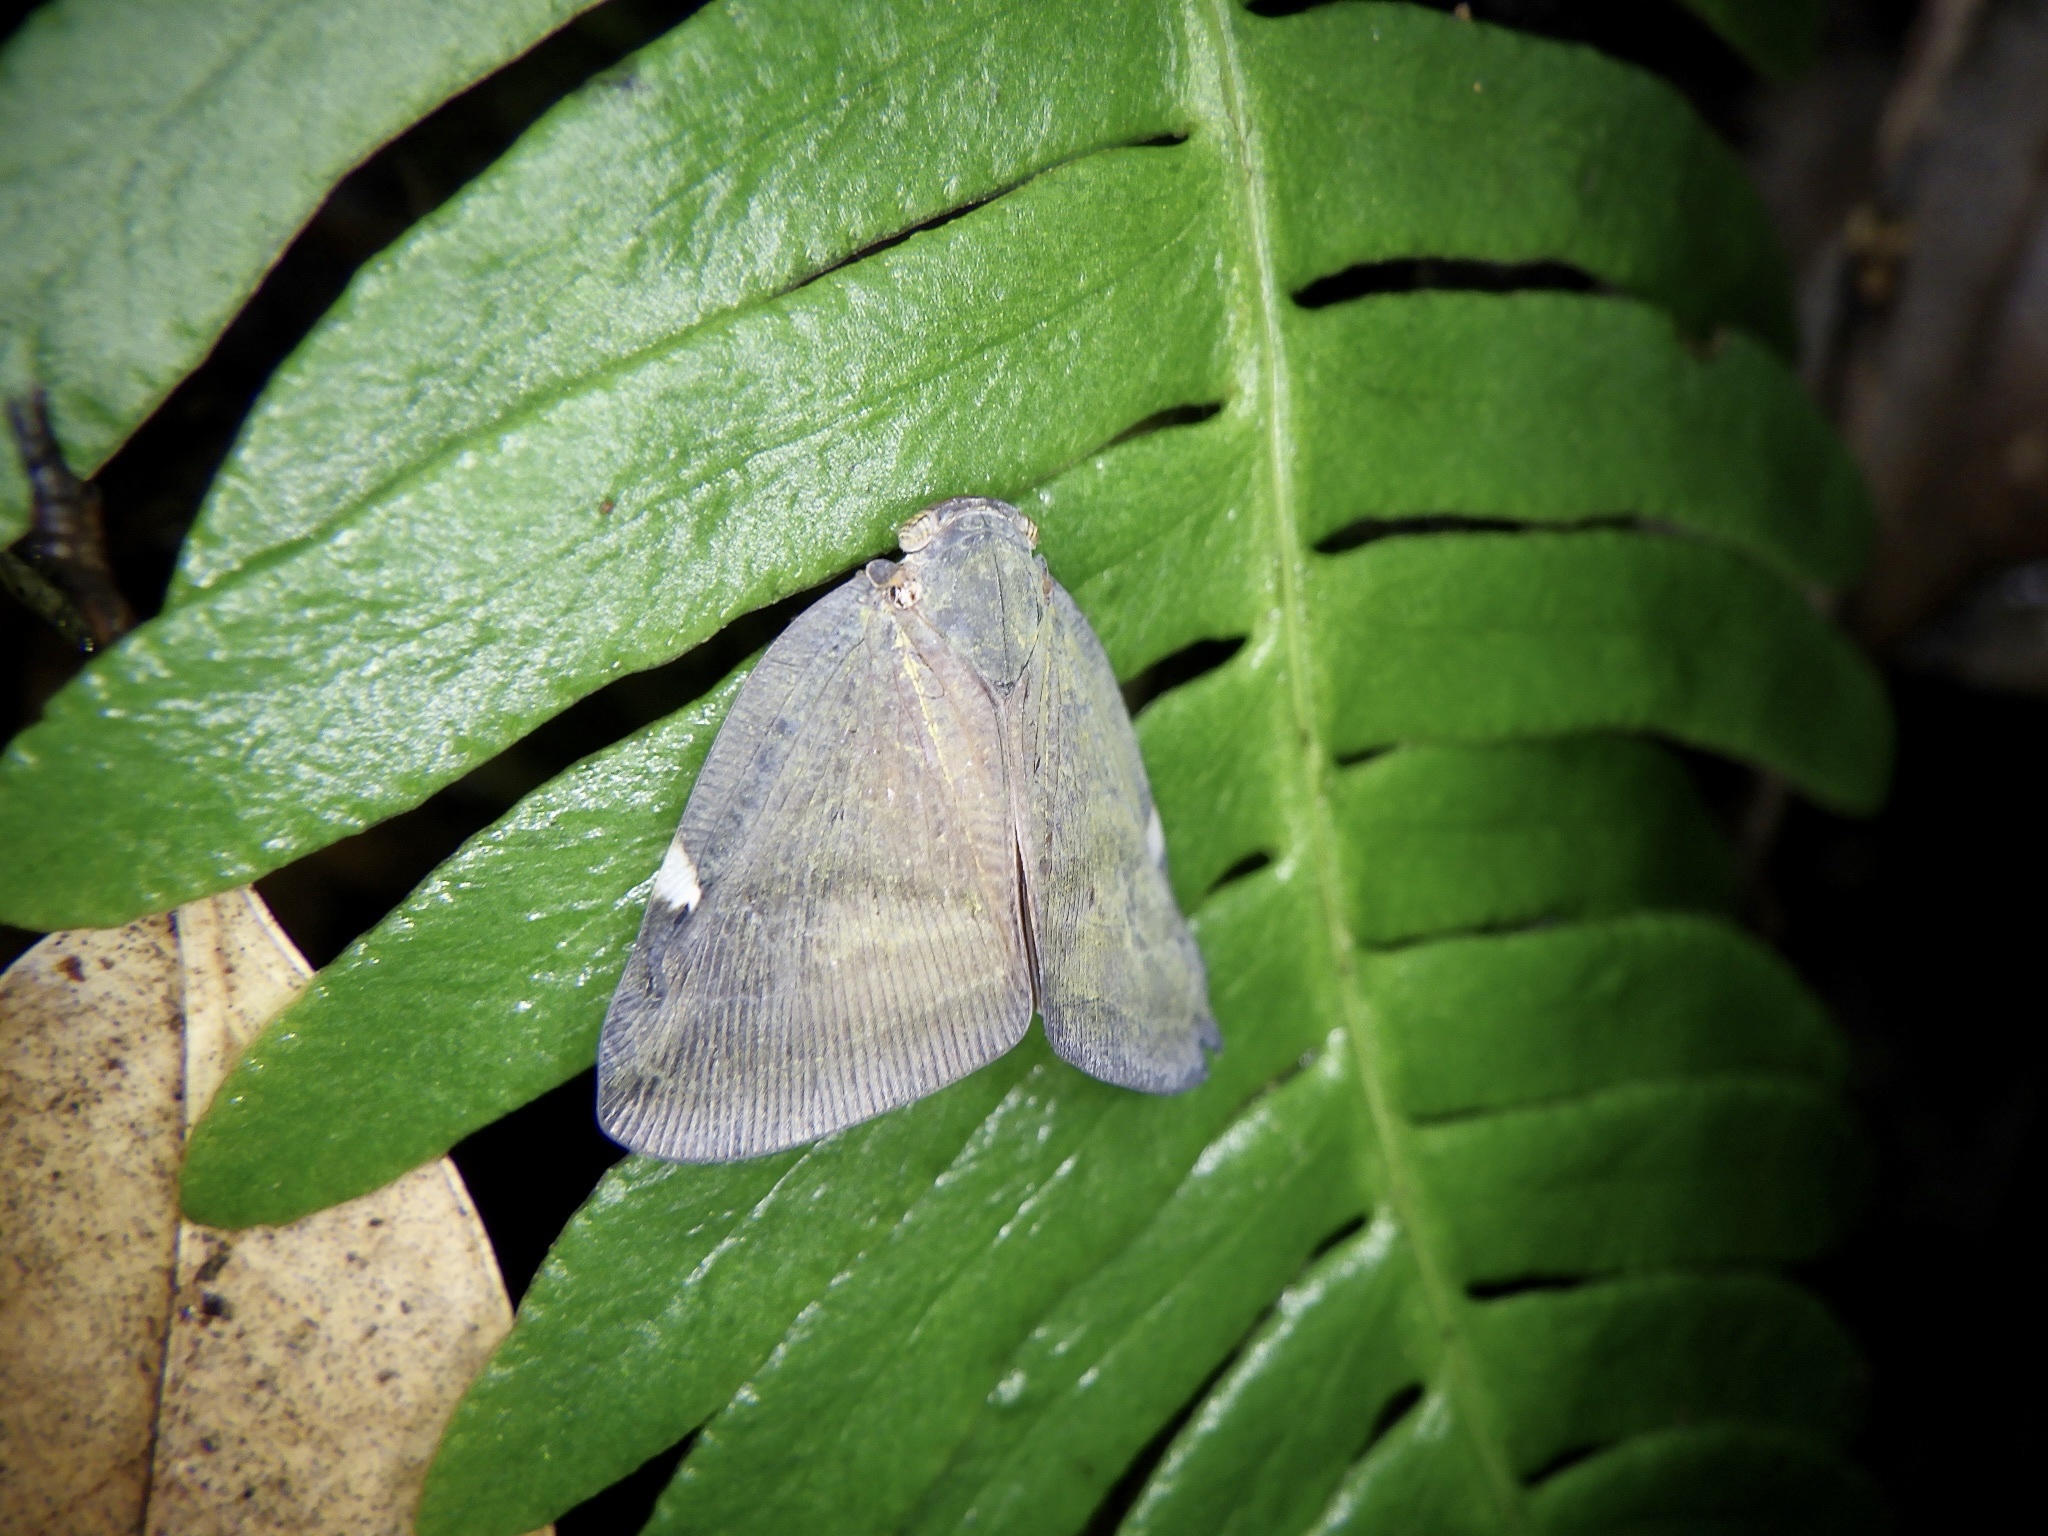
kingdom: Animalia
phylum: Arthropoda
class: Insecta
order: Hemiptera
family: Ricaniidae
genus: Pochazia
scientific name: Pochazia albomaculata
